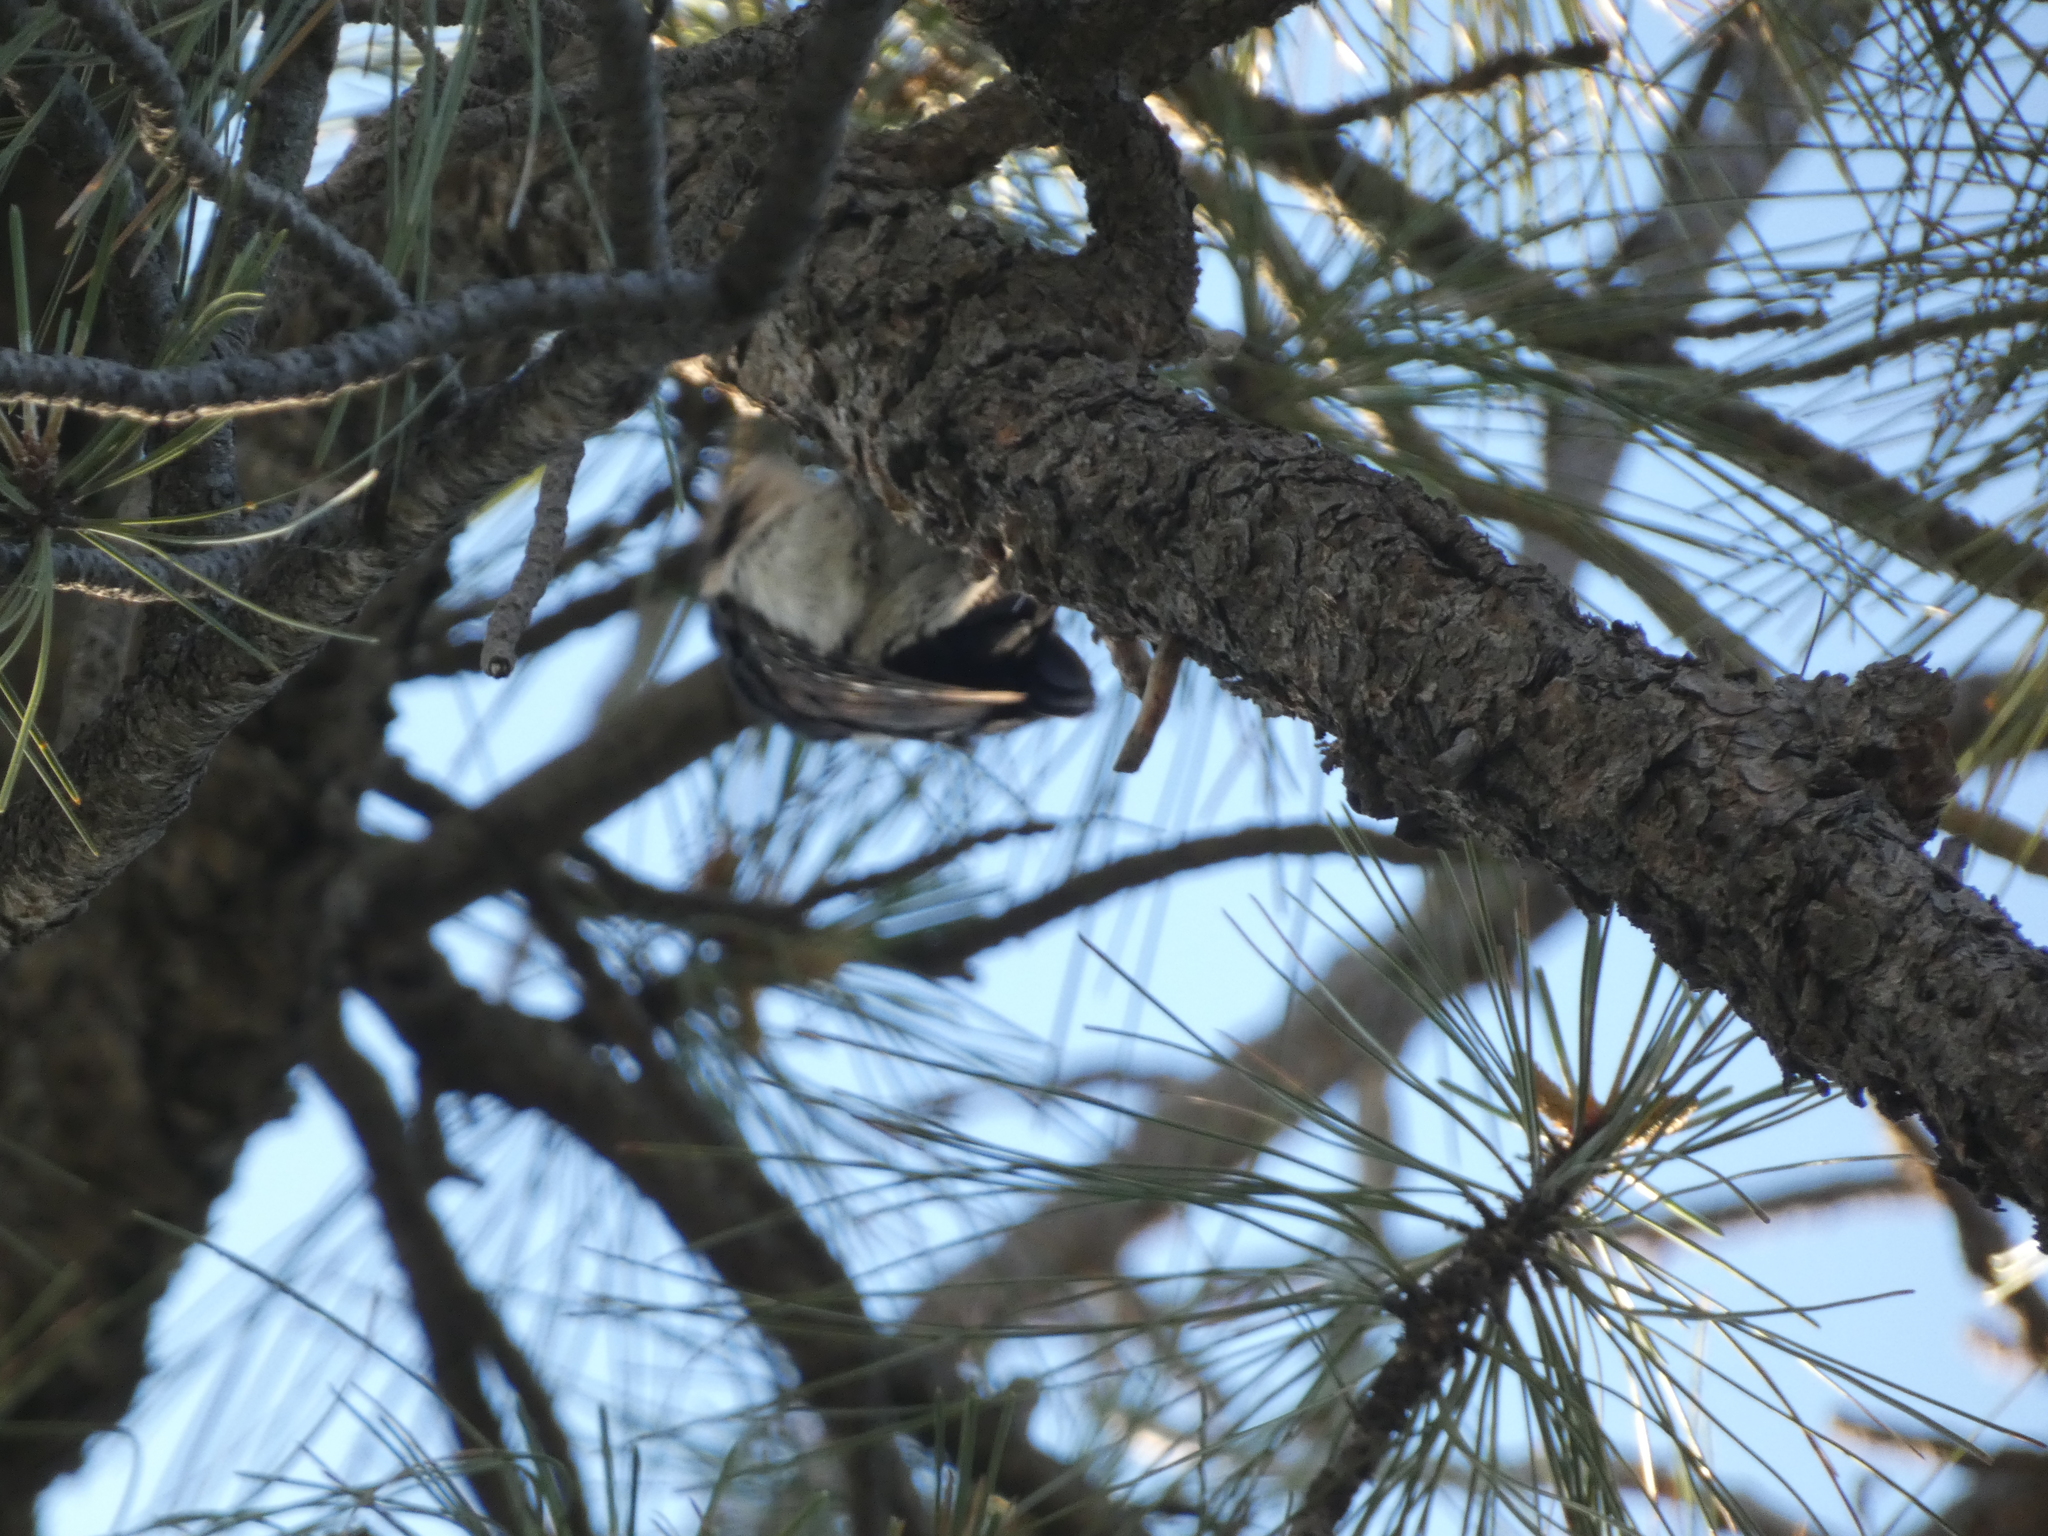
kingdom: Animalia
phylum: Chordata
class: Aves
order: Piciformes
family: Picidae
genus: Leuconotopicus
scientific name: Leuconotopicus villosus
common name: Hairy woodpecker
